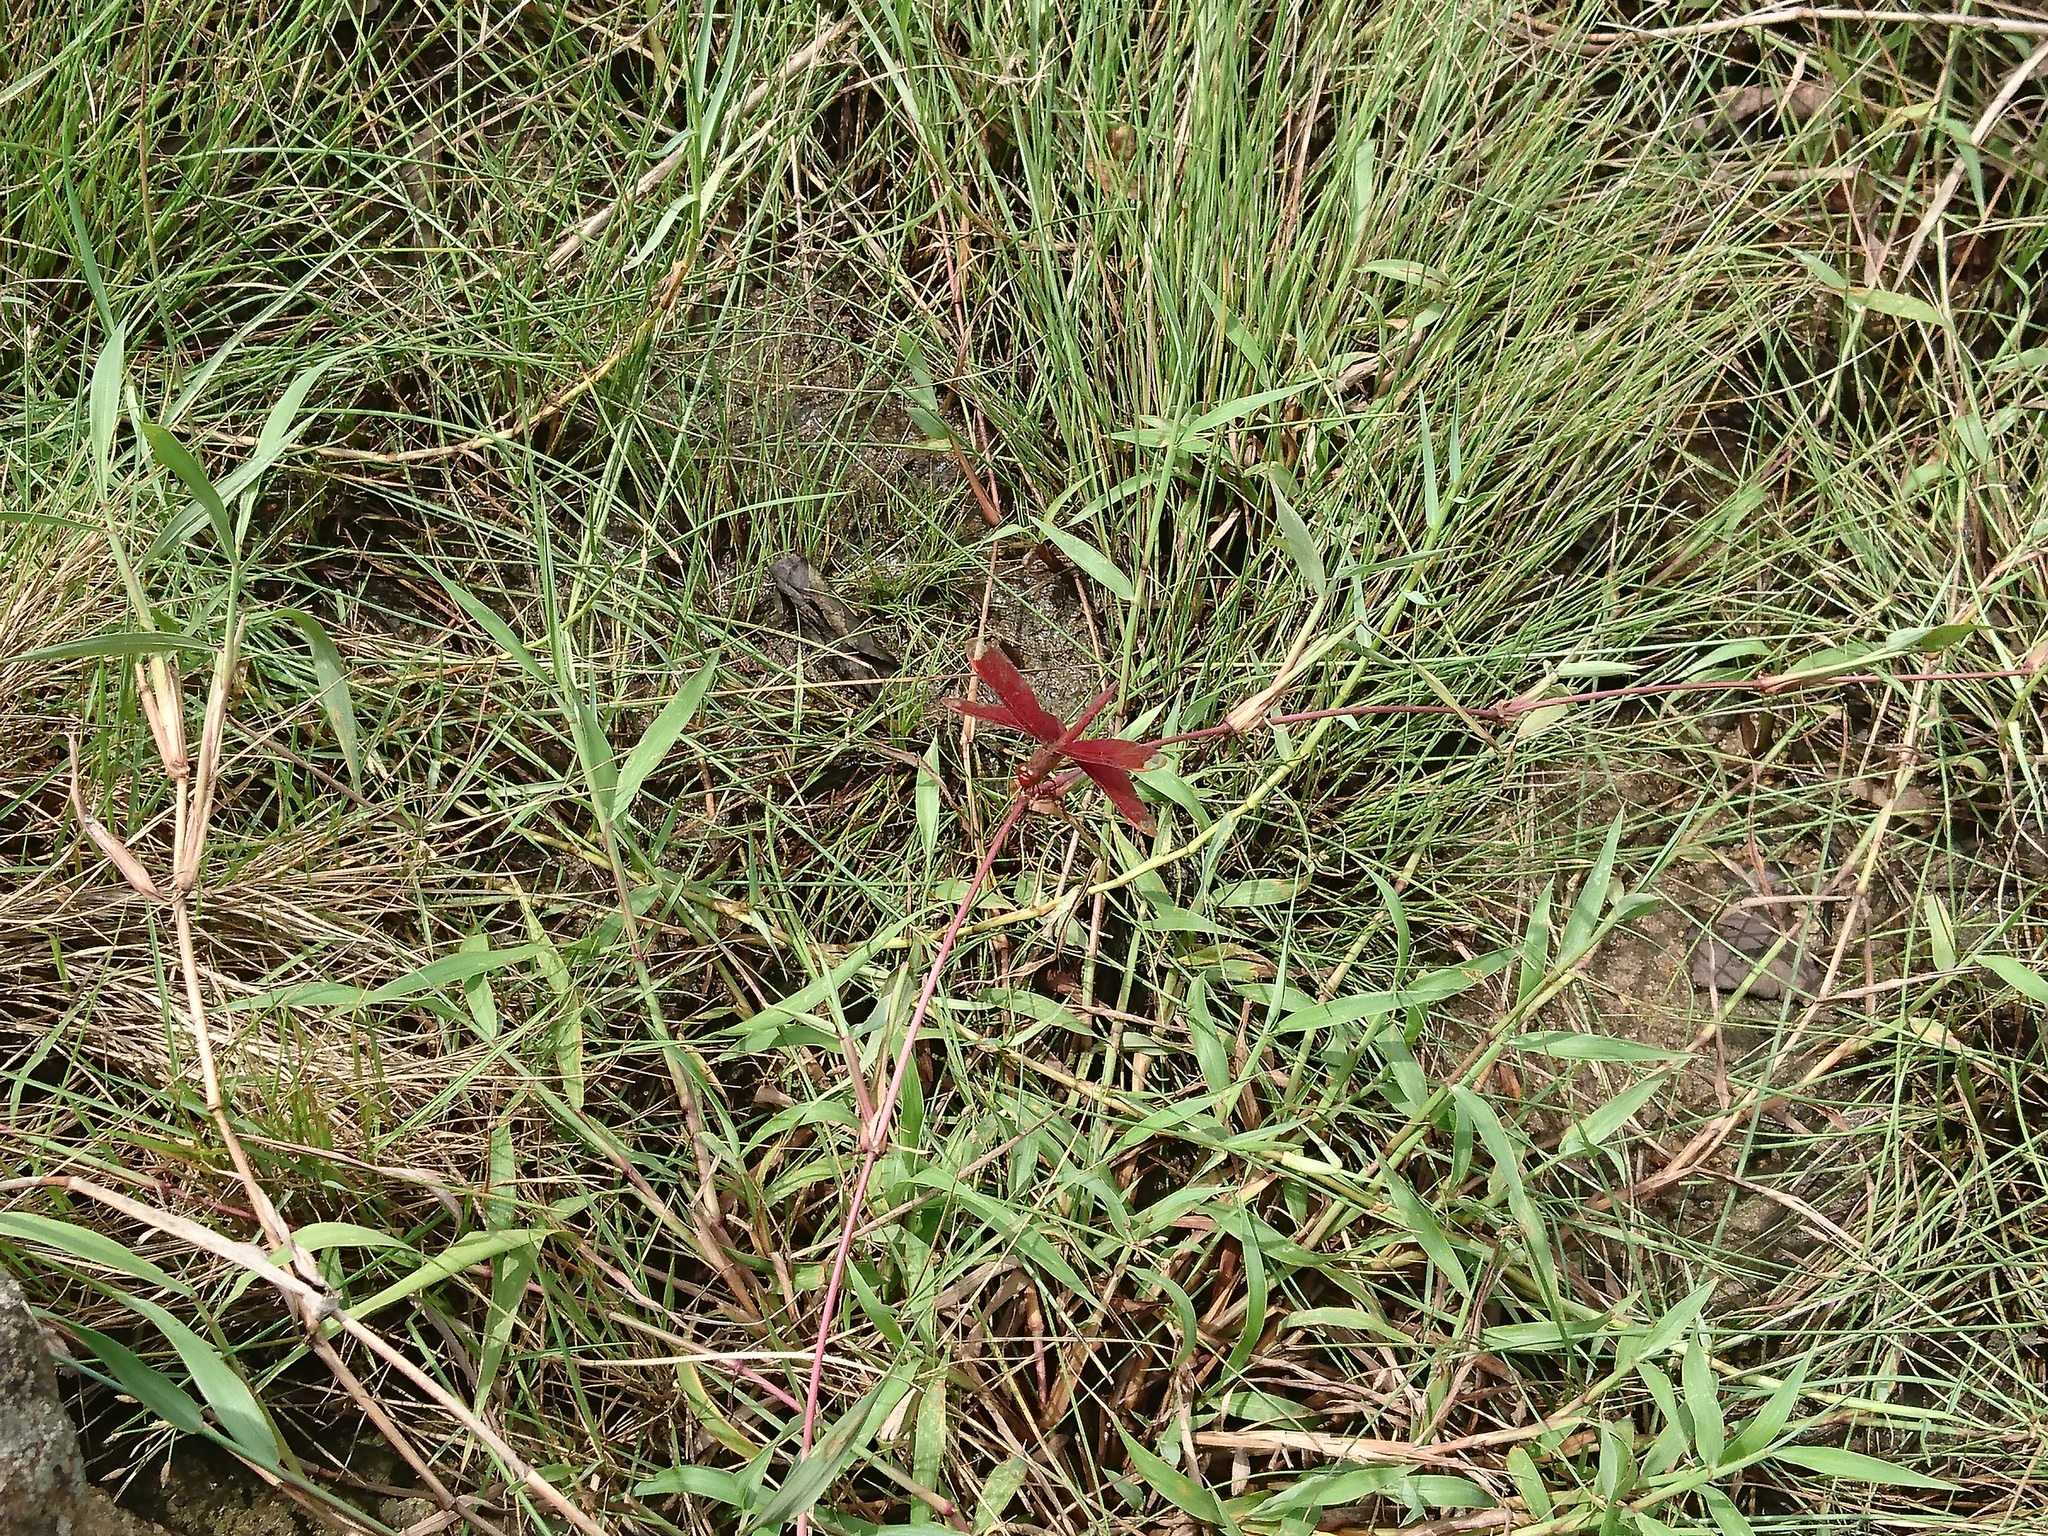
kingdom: Animalia
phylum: Arthropoda
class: Insecta
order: Odonata
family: Libellulidae
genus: Neurothemis
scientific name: Neurothemis fulvia
